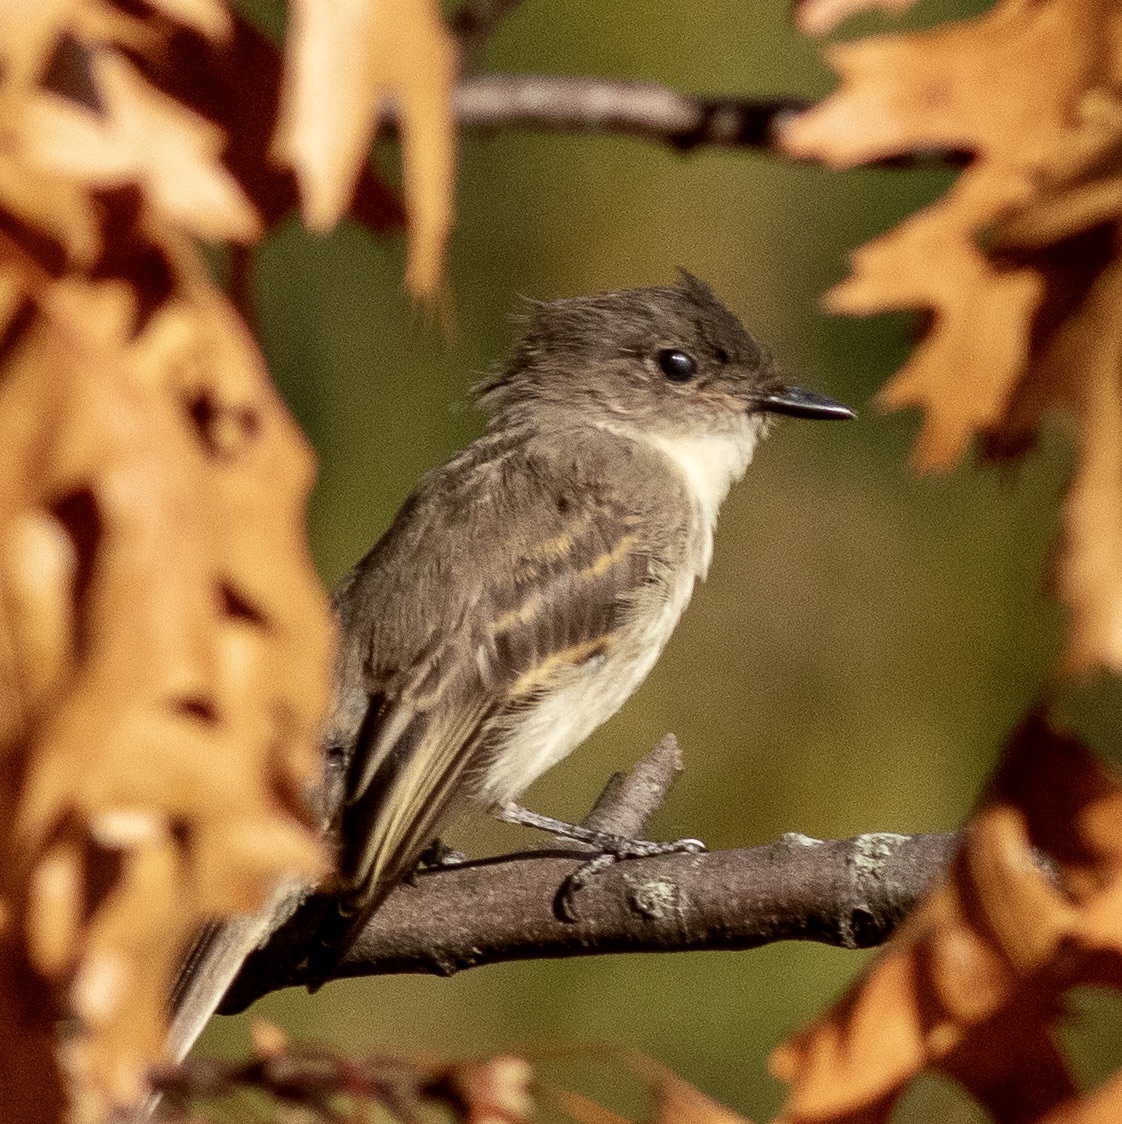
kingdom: Animalia
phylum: Chordata
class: Aves
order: Passeriformes
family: Tyrannidae
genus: Sayornis
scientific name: Sayornis phoebe
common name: Eastern phoebe
